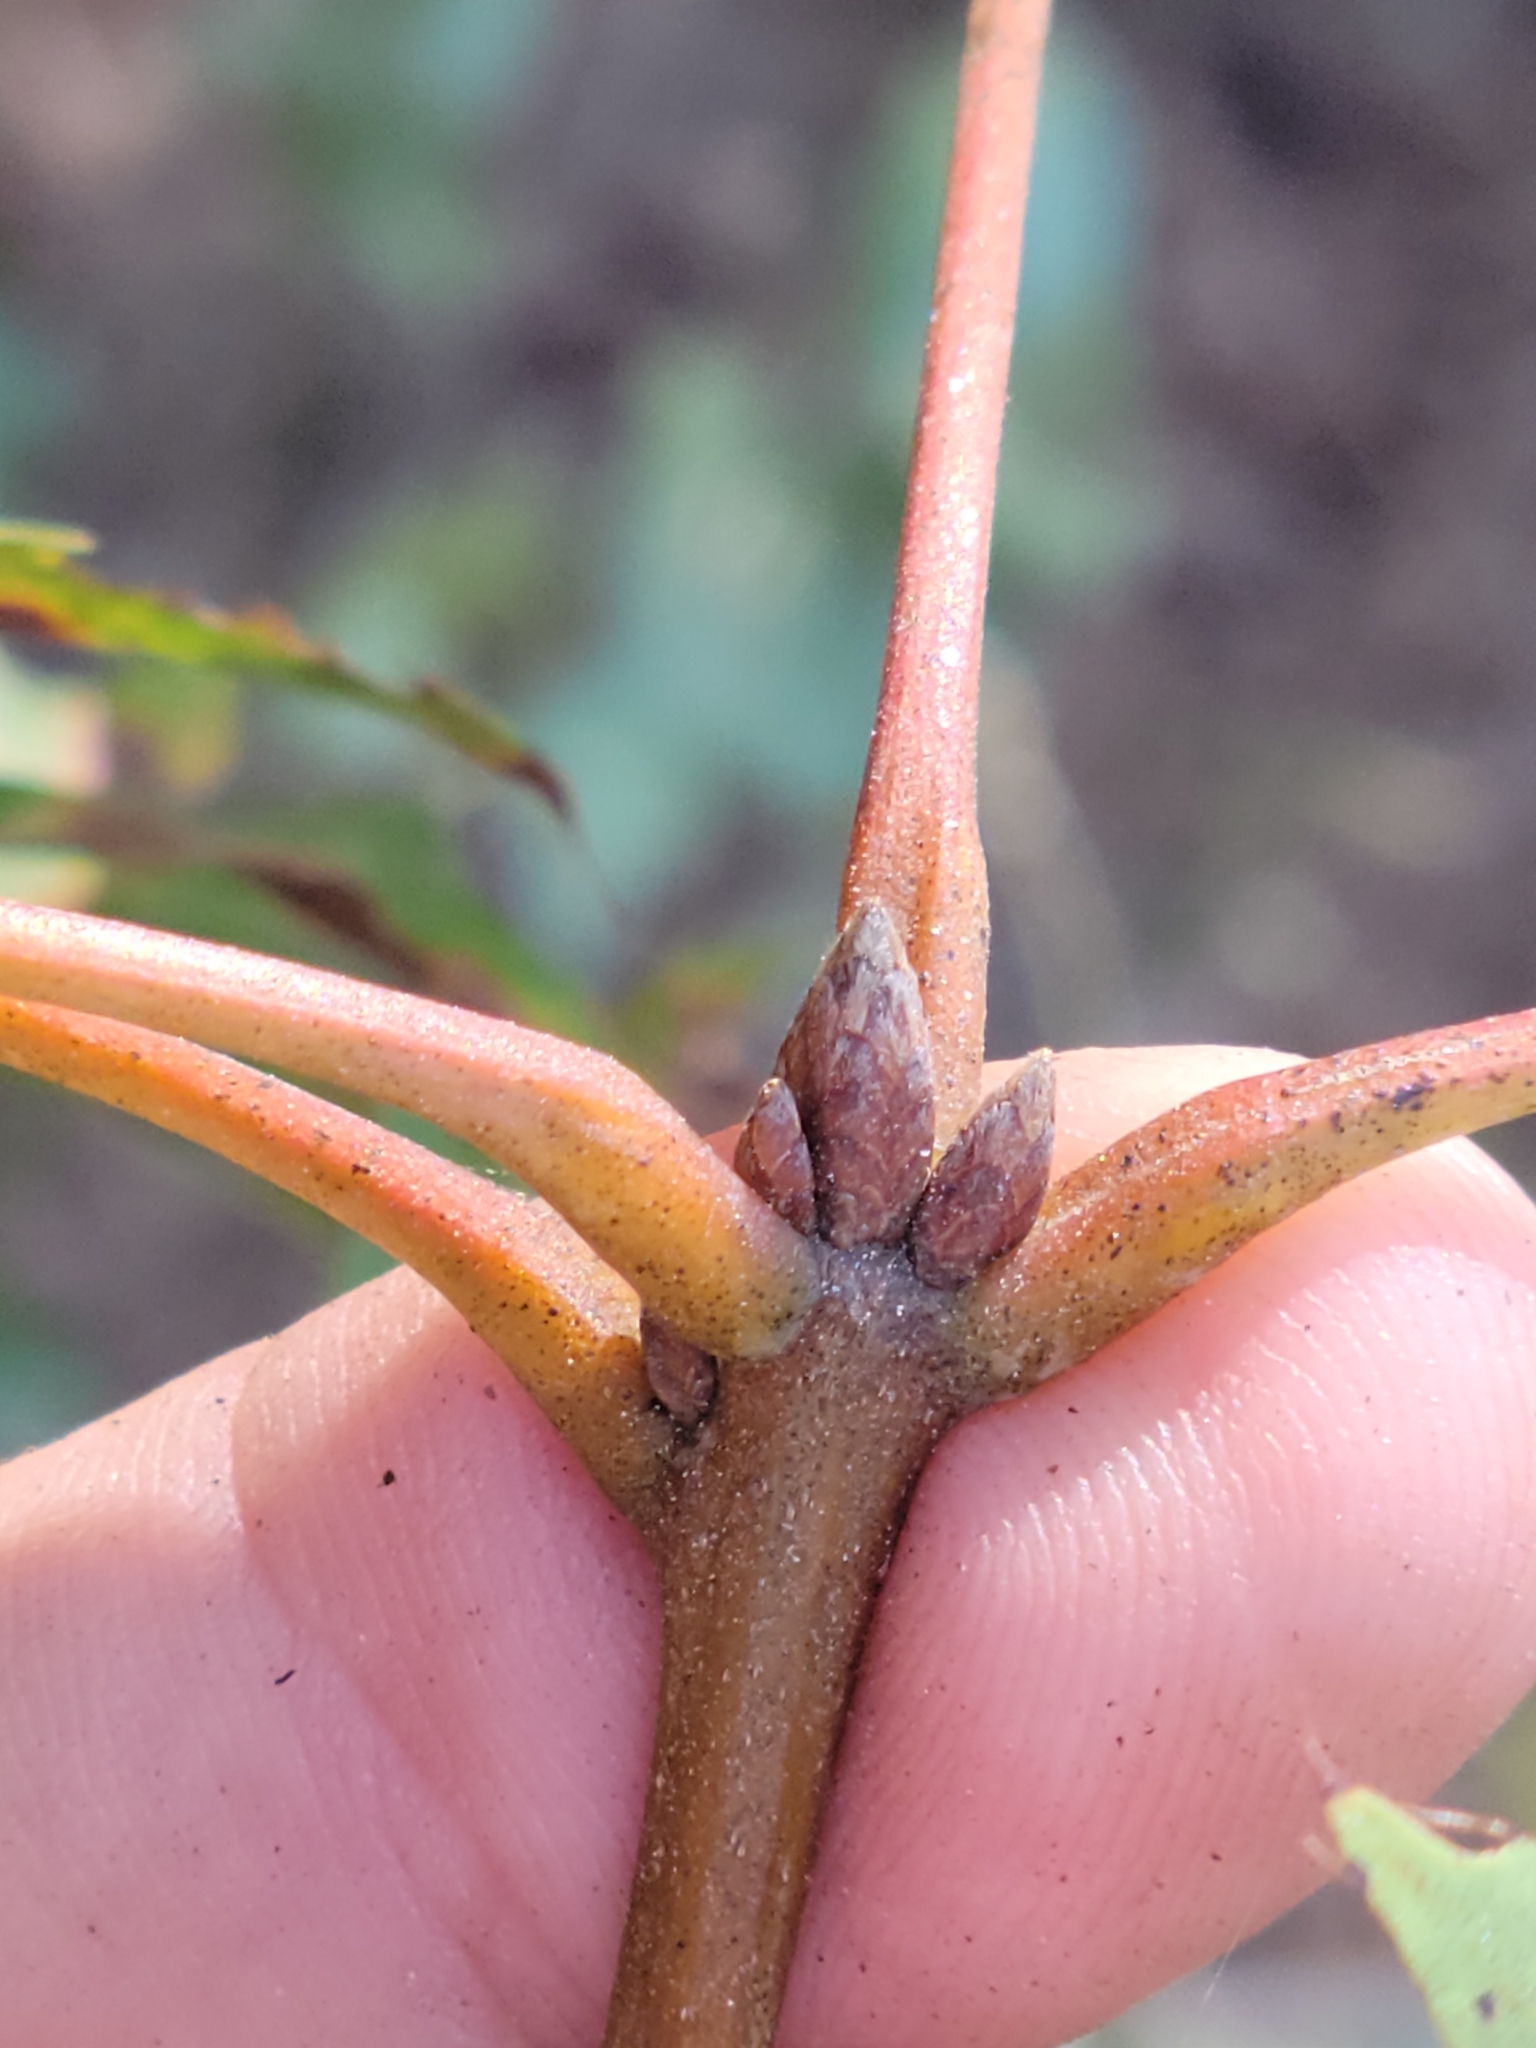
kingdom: Plantae
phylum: Tracheophyta
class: Magnoliopsida
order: Fagales
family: Fagaceae
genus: Quercus
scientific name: Quercus coccinea
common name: Scarlet oak
